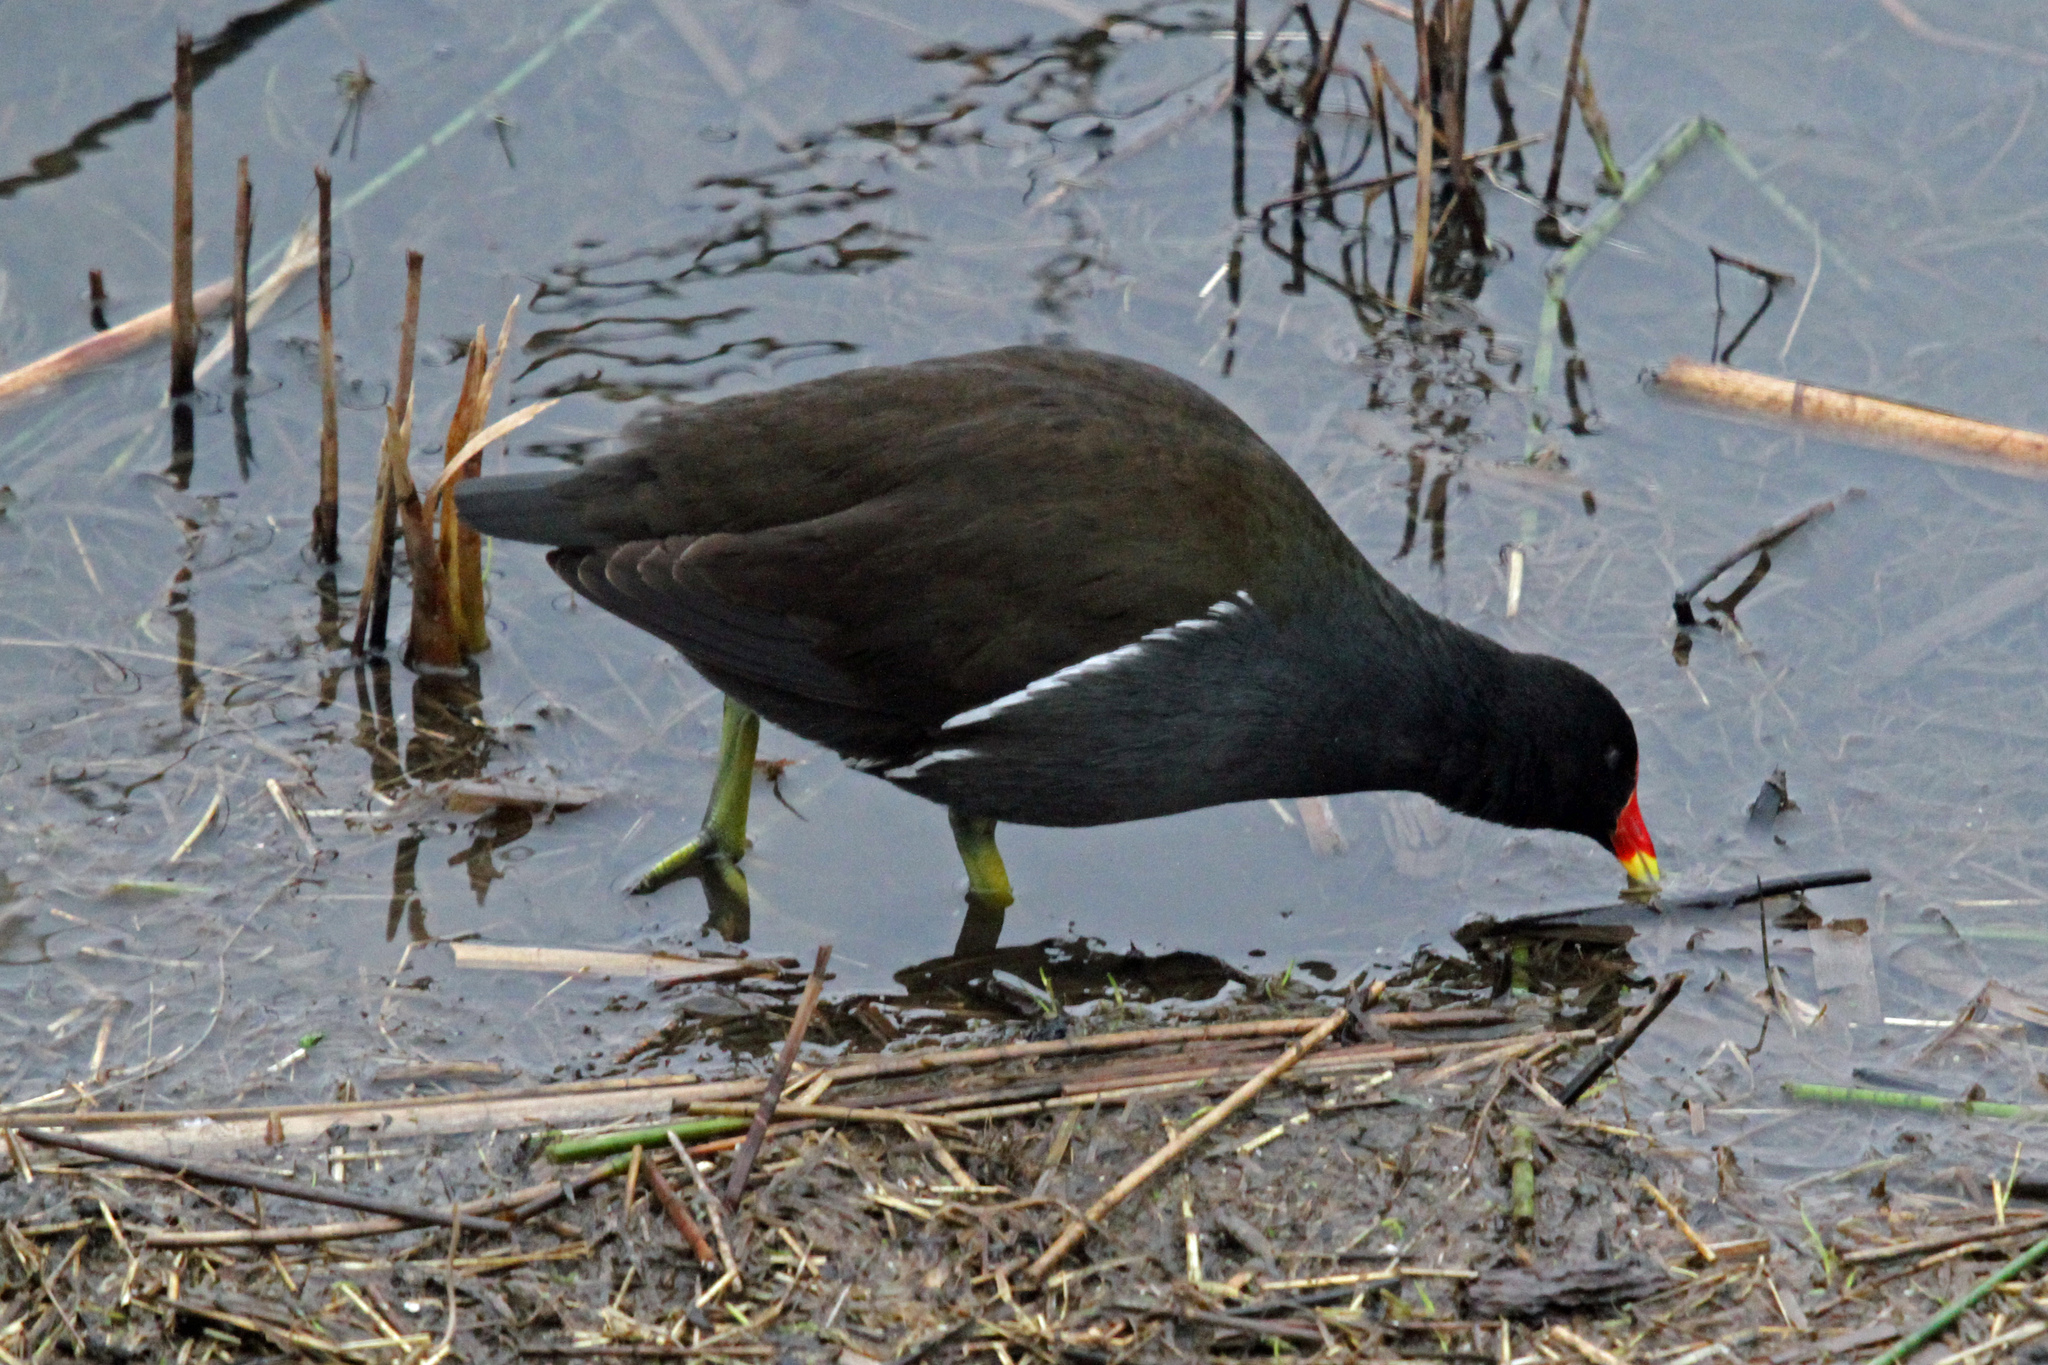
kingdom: Animalia
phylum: Chordata
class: Aves
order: Gruiformes
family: Rallidae
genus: Gallinula
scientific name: Gallinula chloropus
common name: Common moorhen
